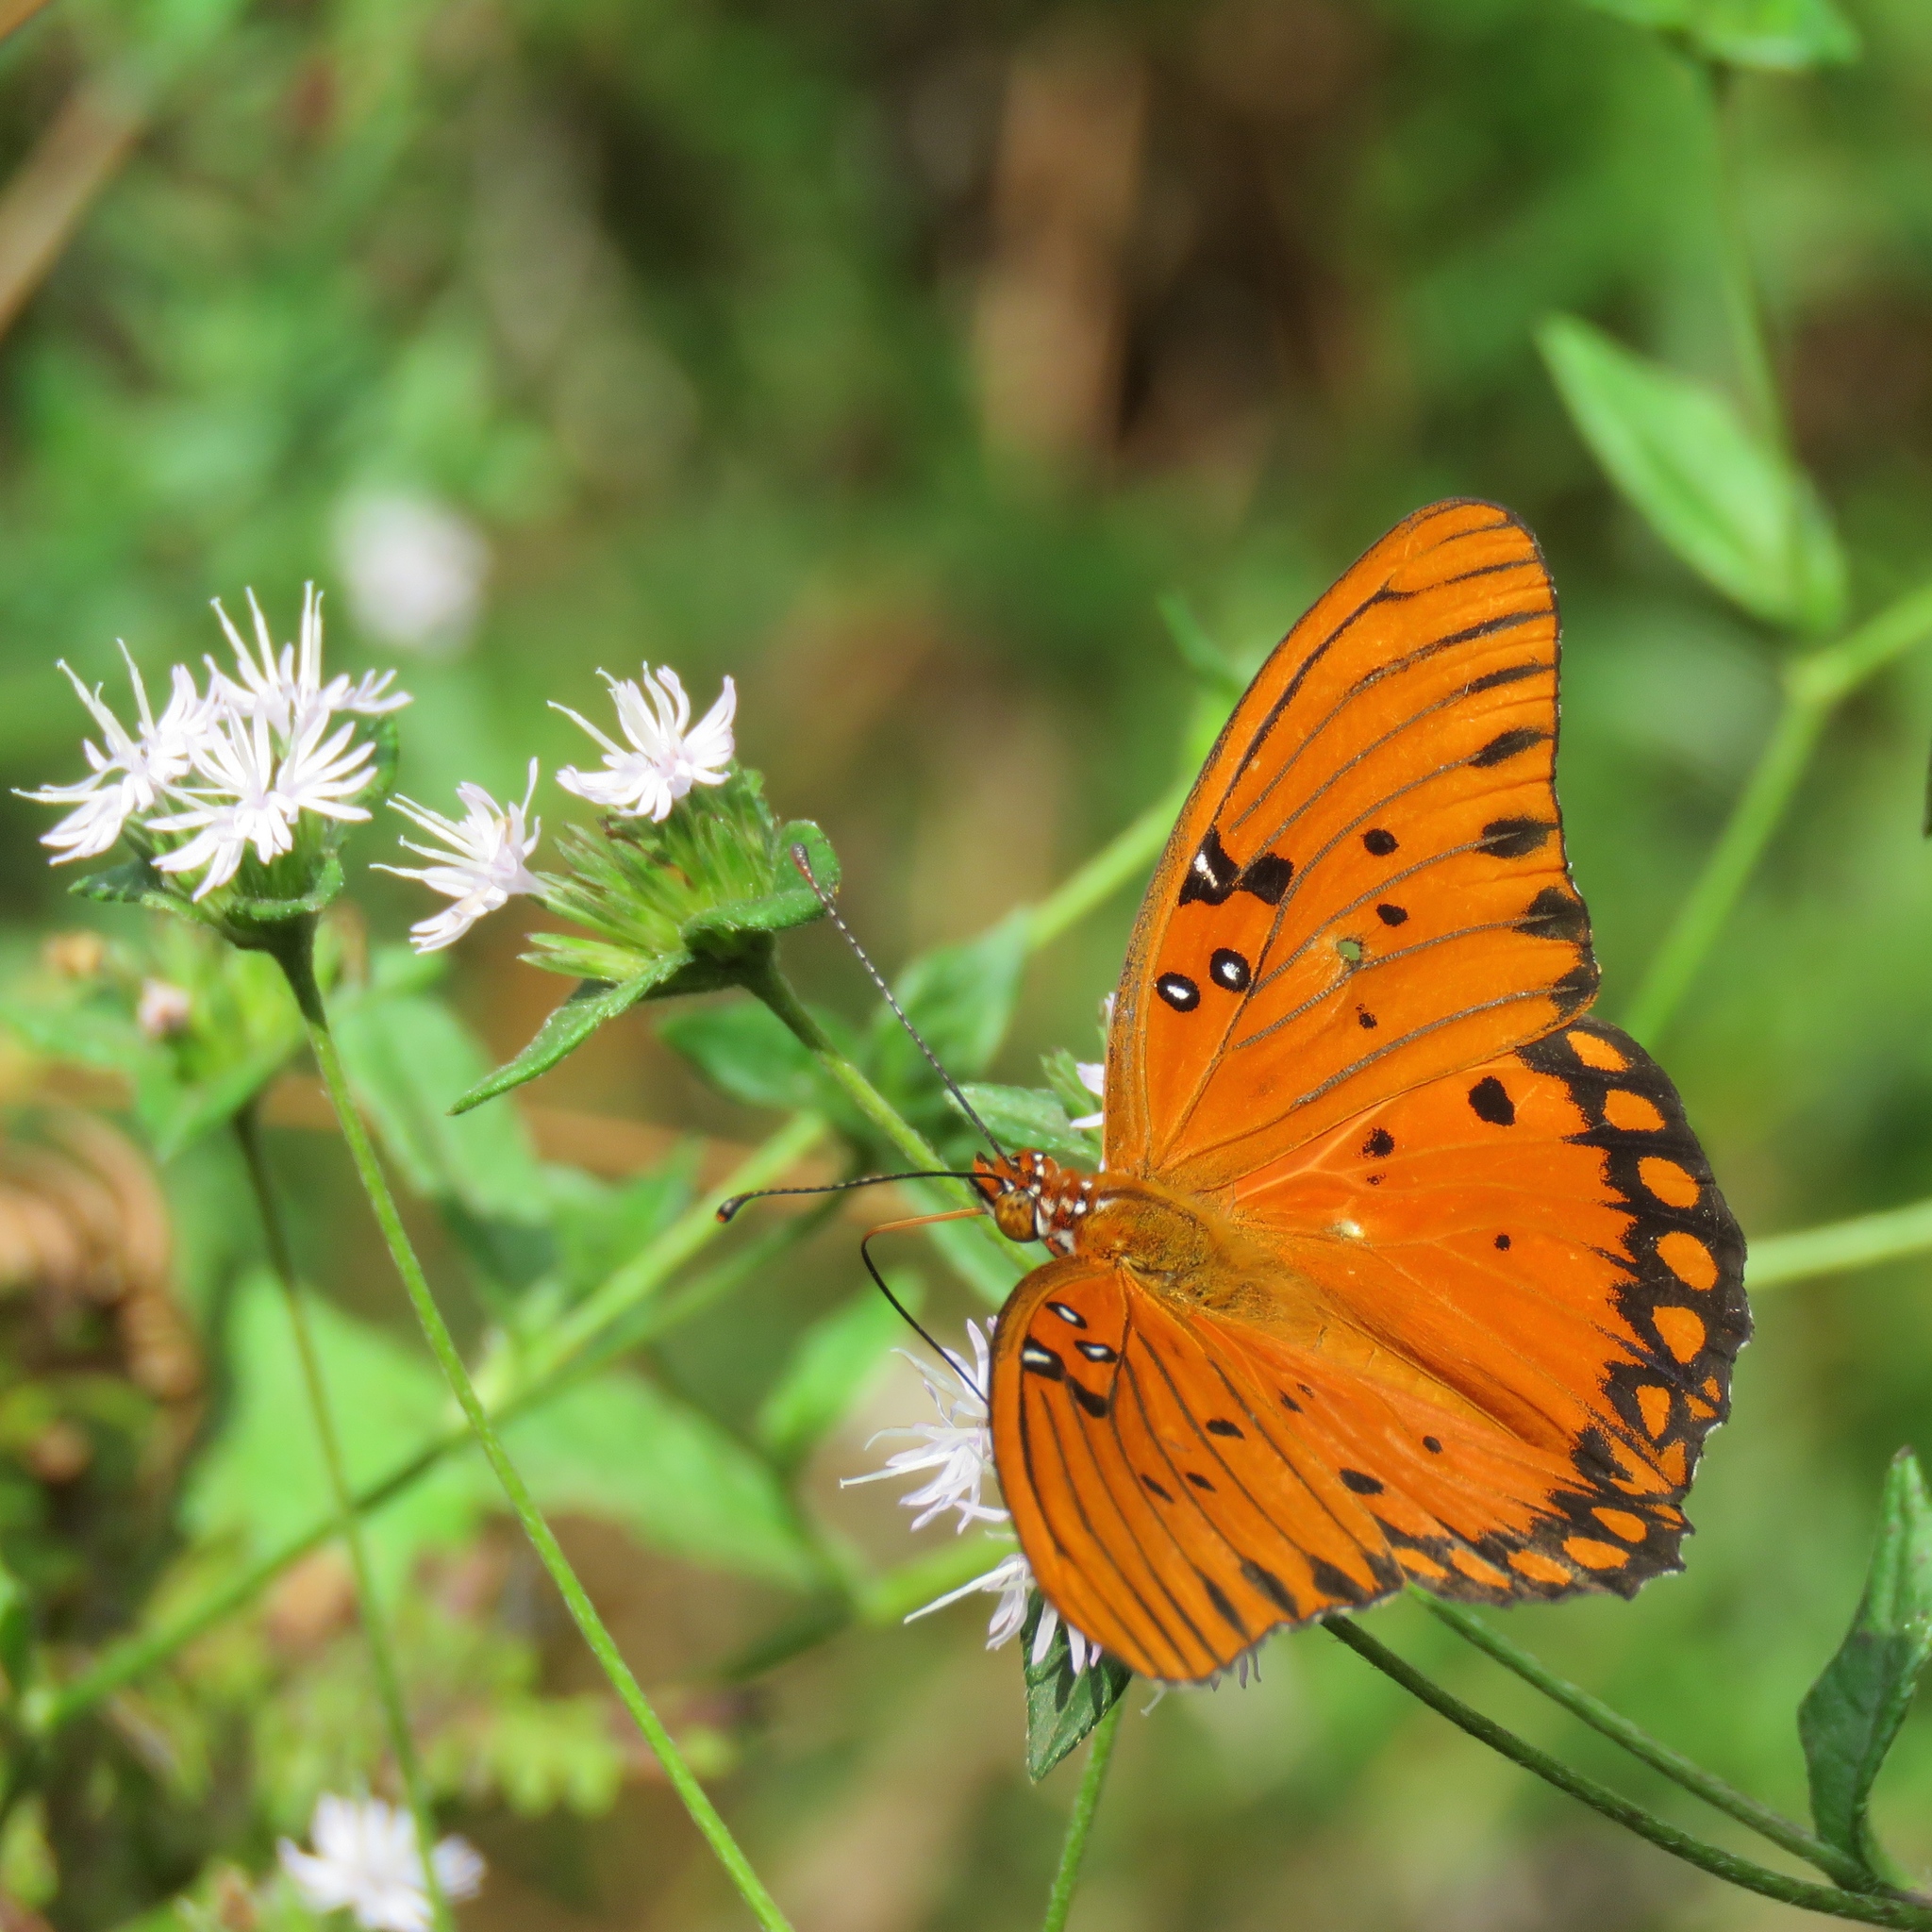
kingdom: Animalia
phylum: Arthropoda
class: Insecta
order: Lepidoptera
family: Nymphalidae
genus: Dione
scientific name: Dione vanillae
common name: Gulf fritillary
